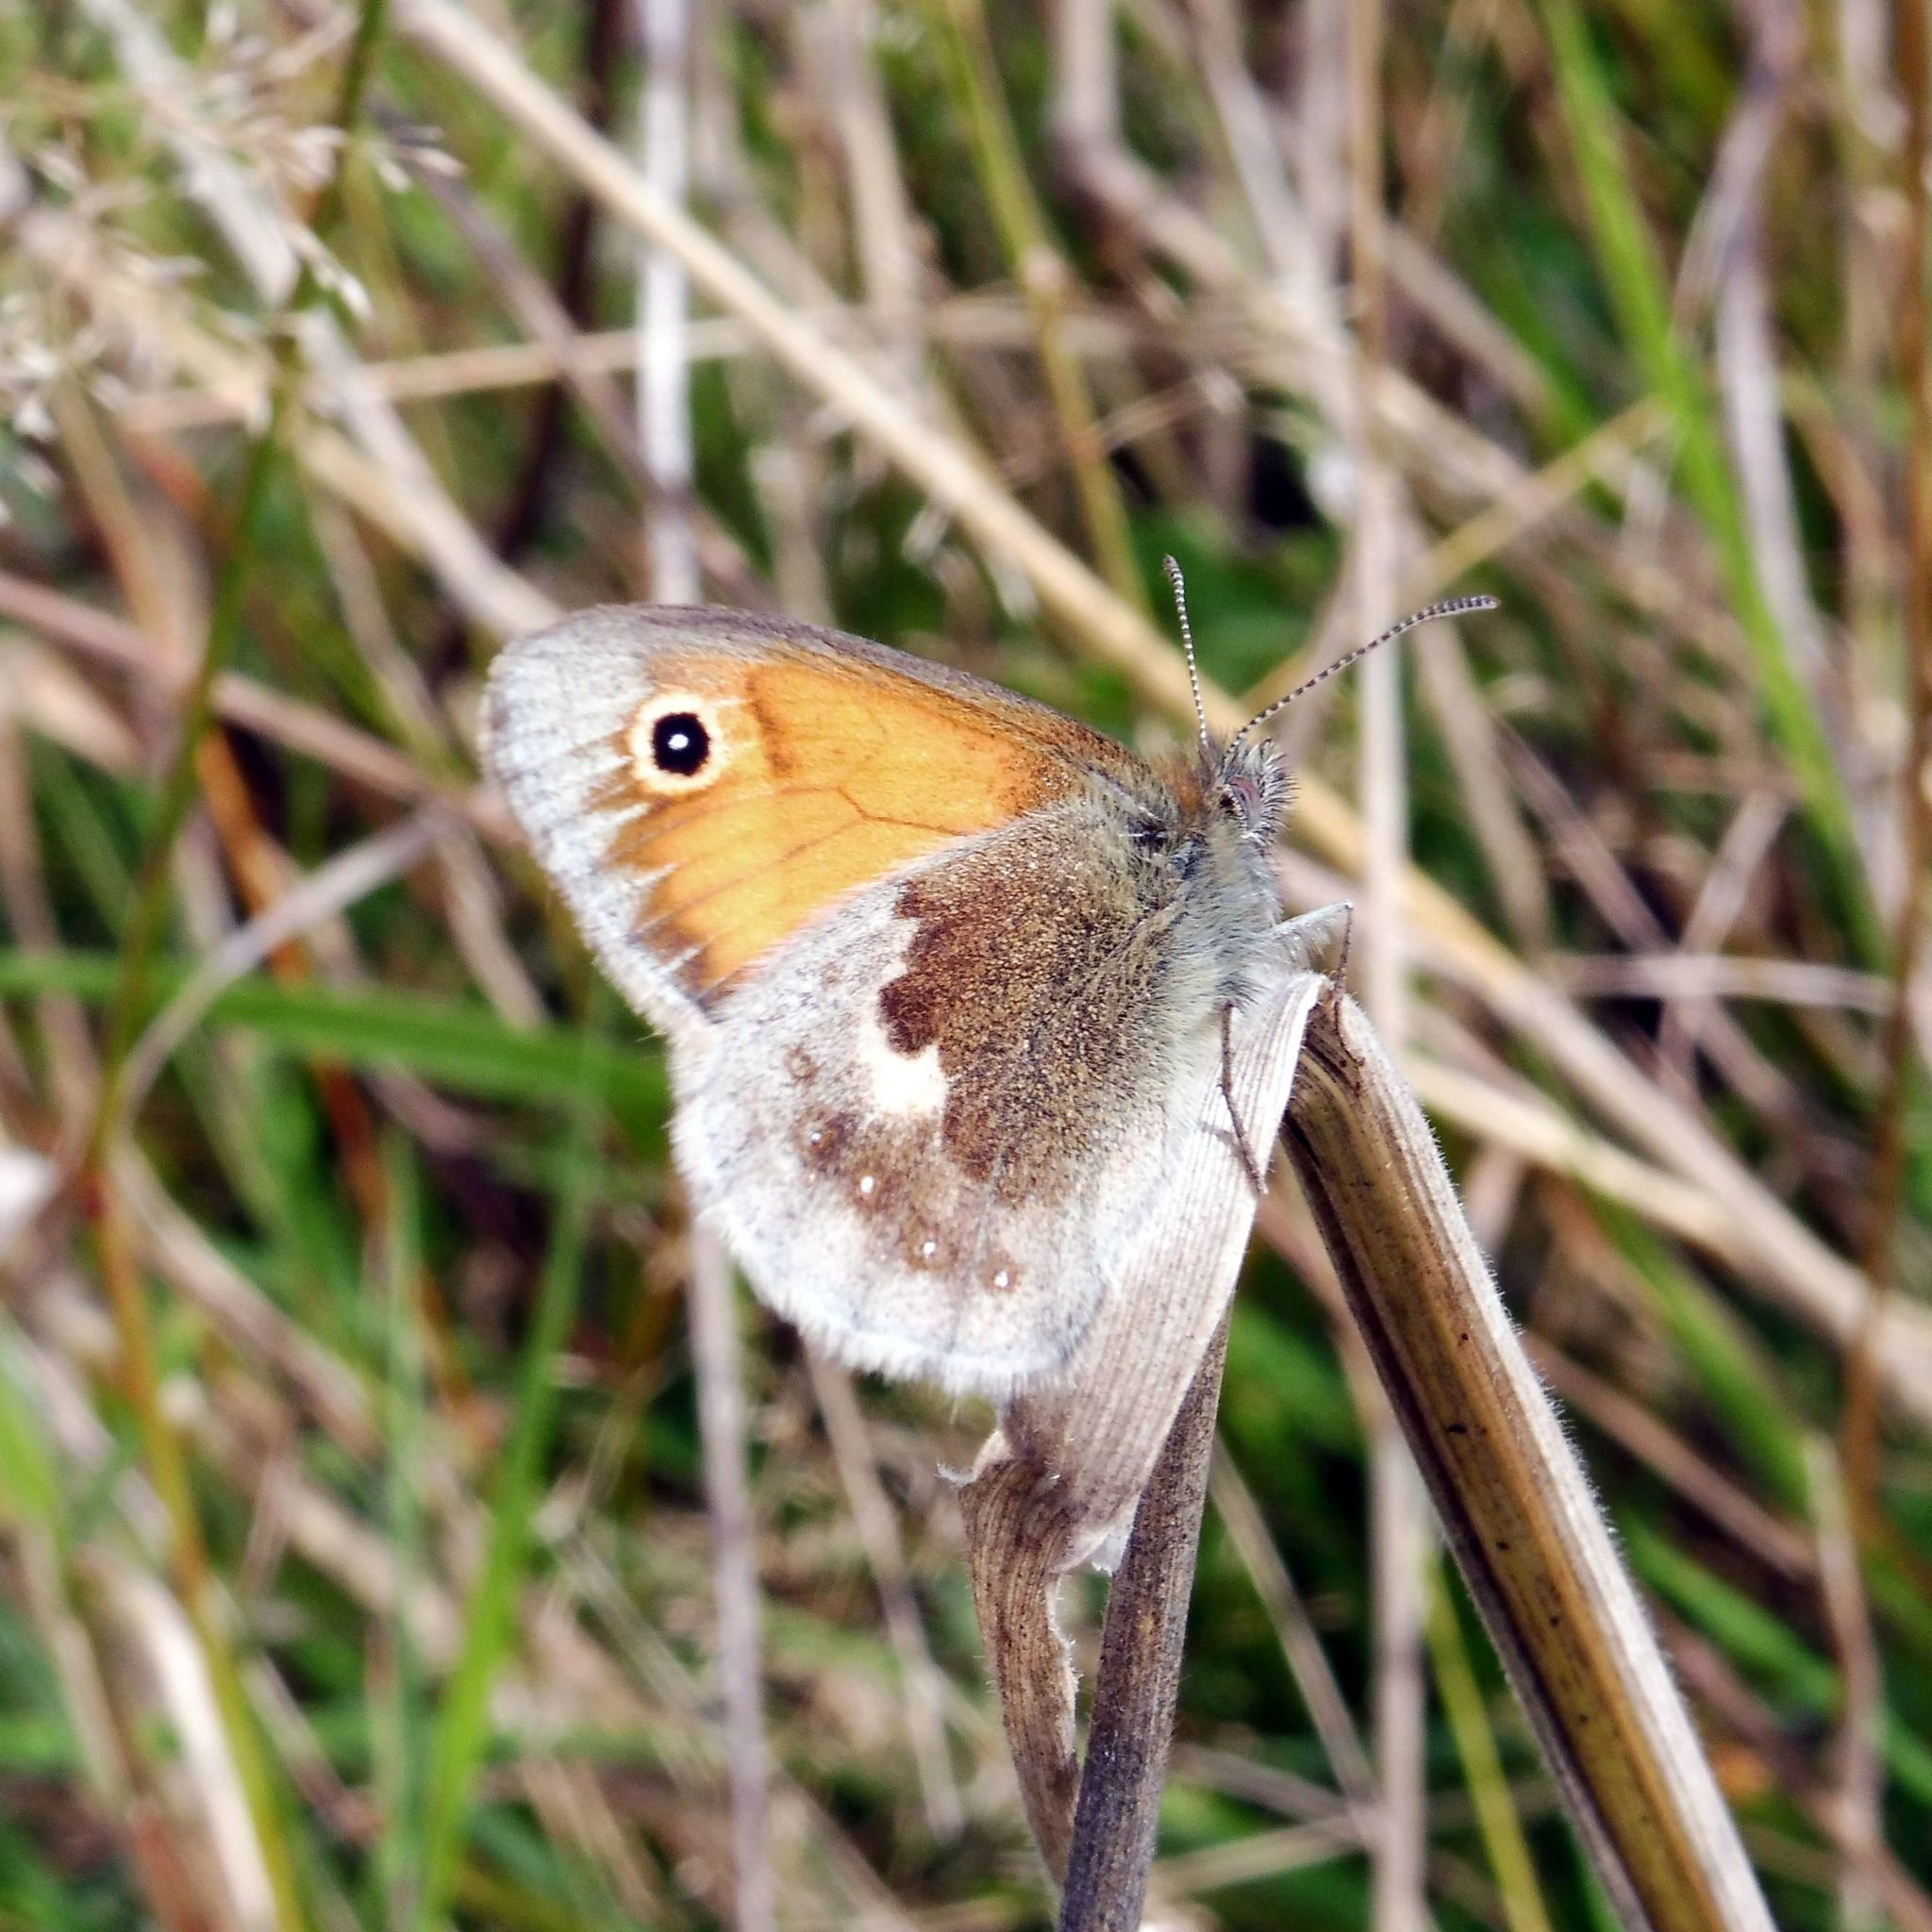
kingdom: Animalia
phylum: Arthropoda
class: Insecta
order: Lepidoptera
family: Nymphalidae
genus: Coenonympha
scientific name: Coenonympha pamphilus
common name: Small heath
